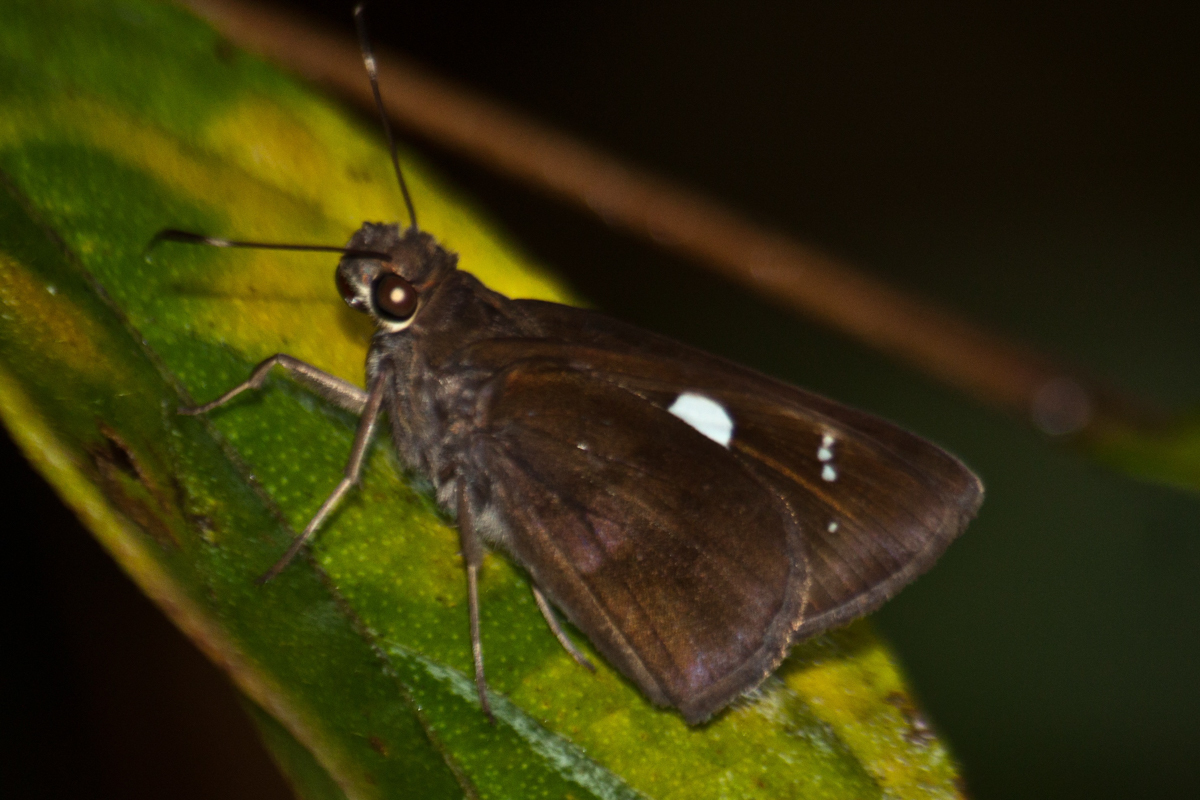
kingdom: Animalia
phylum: Arthropoda
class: Insecta
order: Lepidoptera
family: Hesperiidae
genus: Notocrypta
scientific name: Notocrypta curvifascia
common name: Restricted demon
